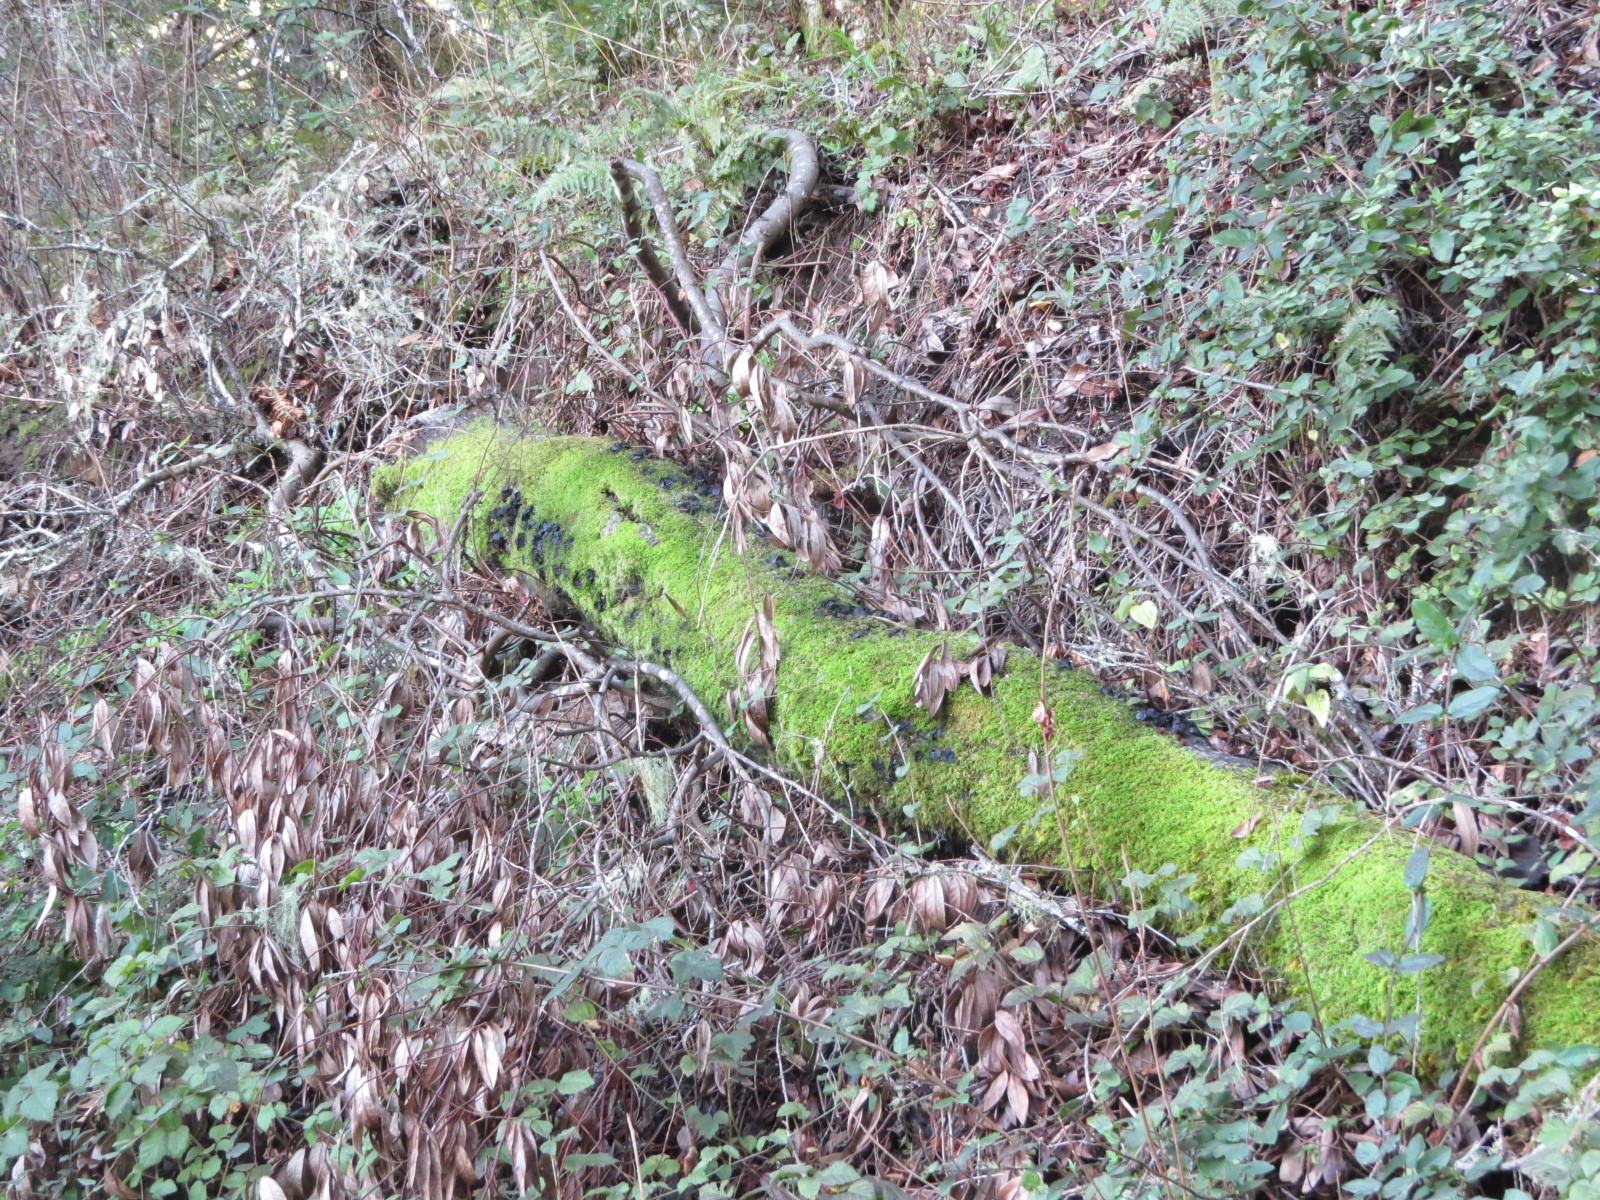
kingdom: Fungi
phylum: Ascomycota
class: Leotiomycetes
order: Phacidiales
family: Phacidiaceae
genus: Bulgaria
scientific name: Bulgaria inquinans
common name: Black bulgar
